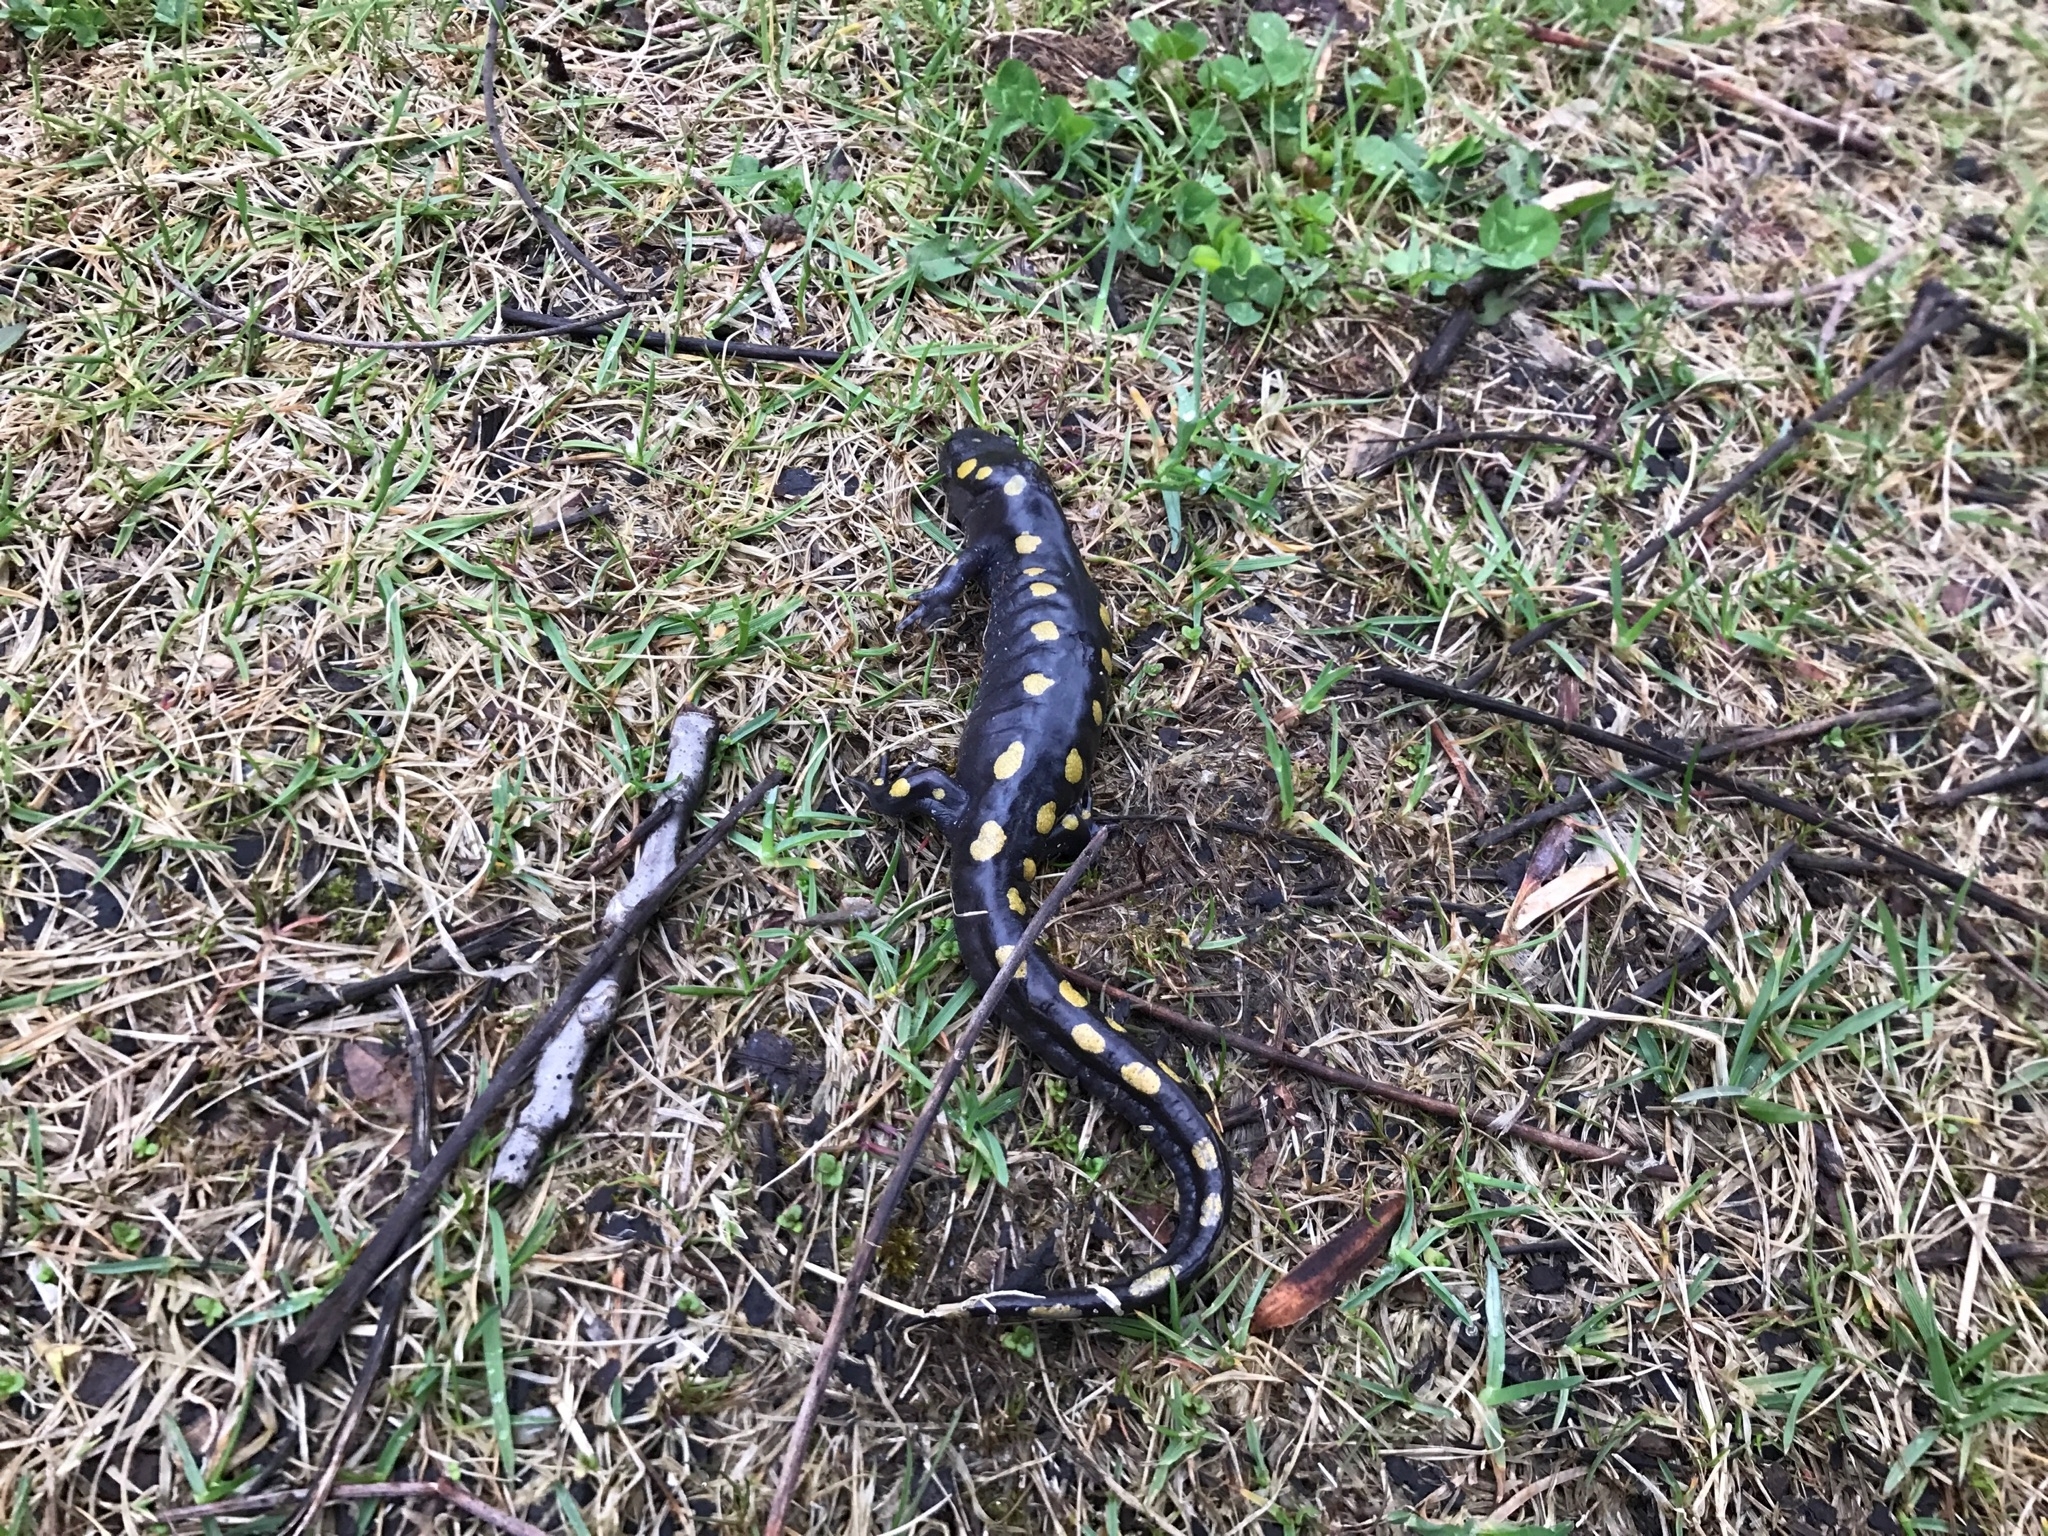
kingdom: Animalia
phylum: Chordata
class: Amphibia
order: Caudata
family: Ambystomatidae
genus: Ambystoma
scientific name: Ambystoma maculatum
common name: Spotted salamander
